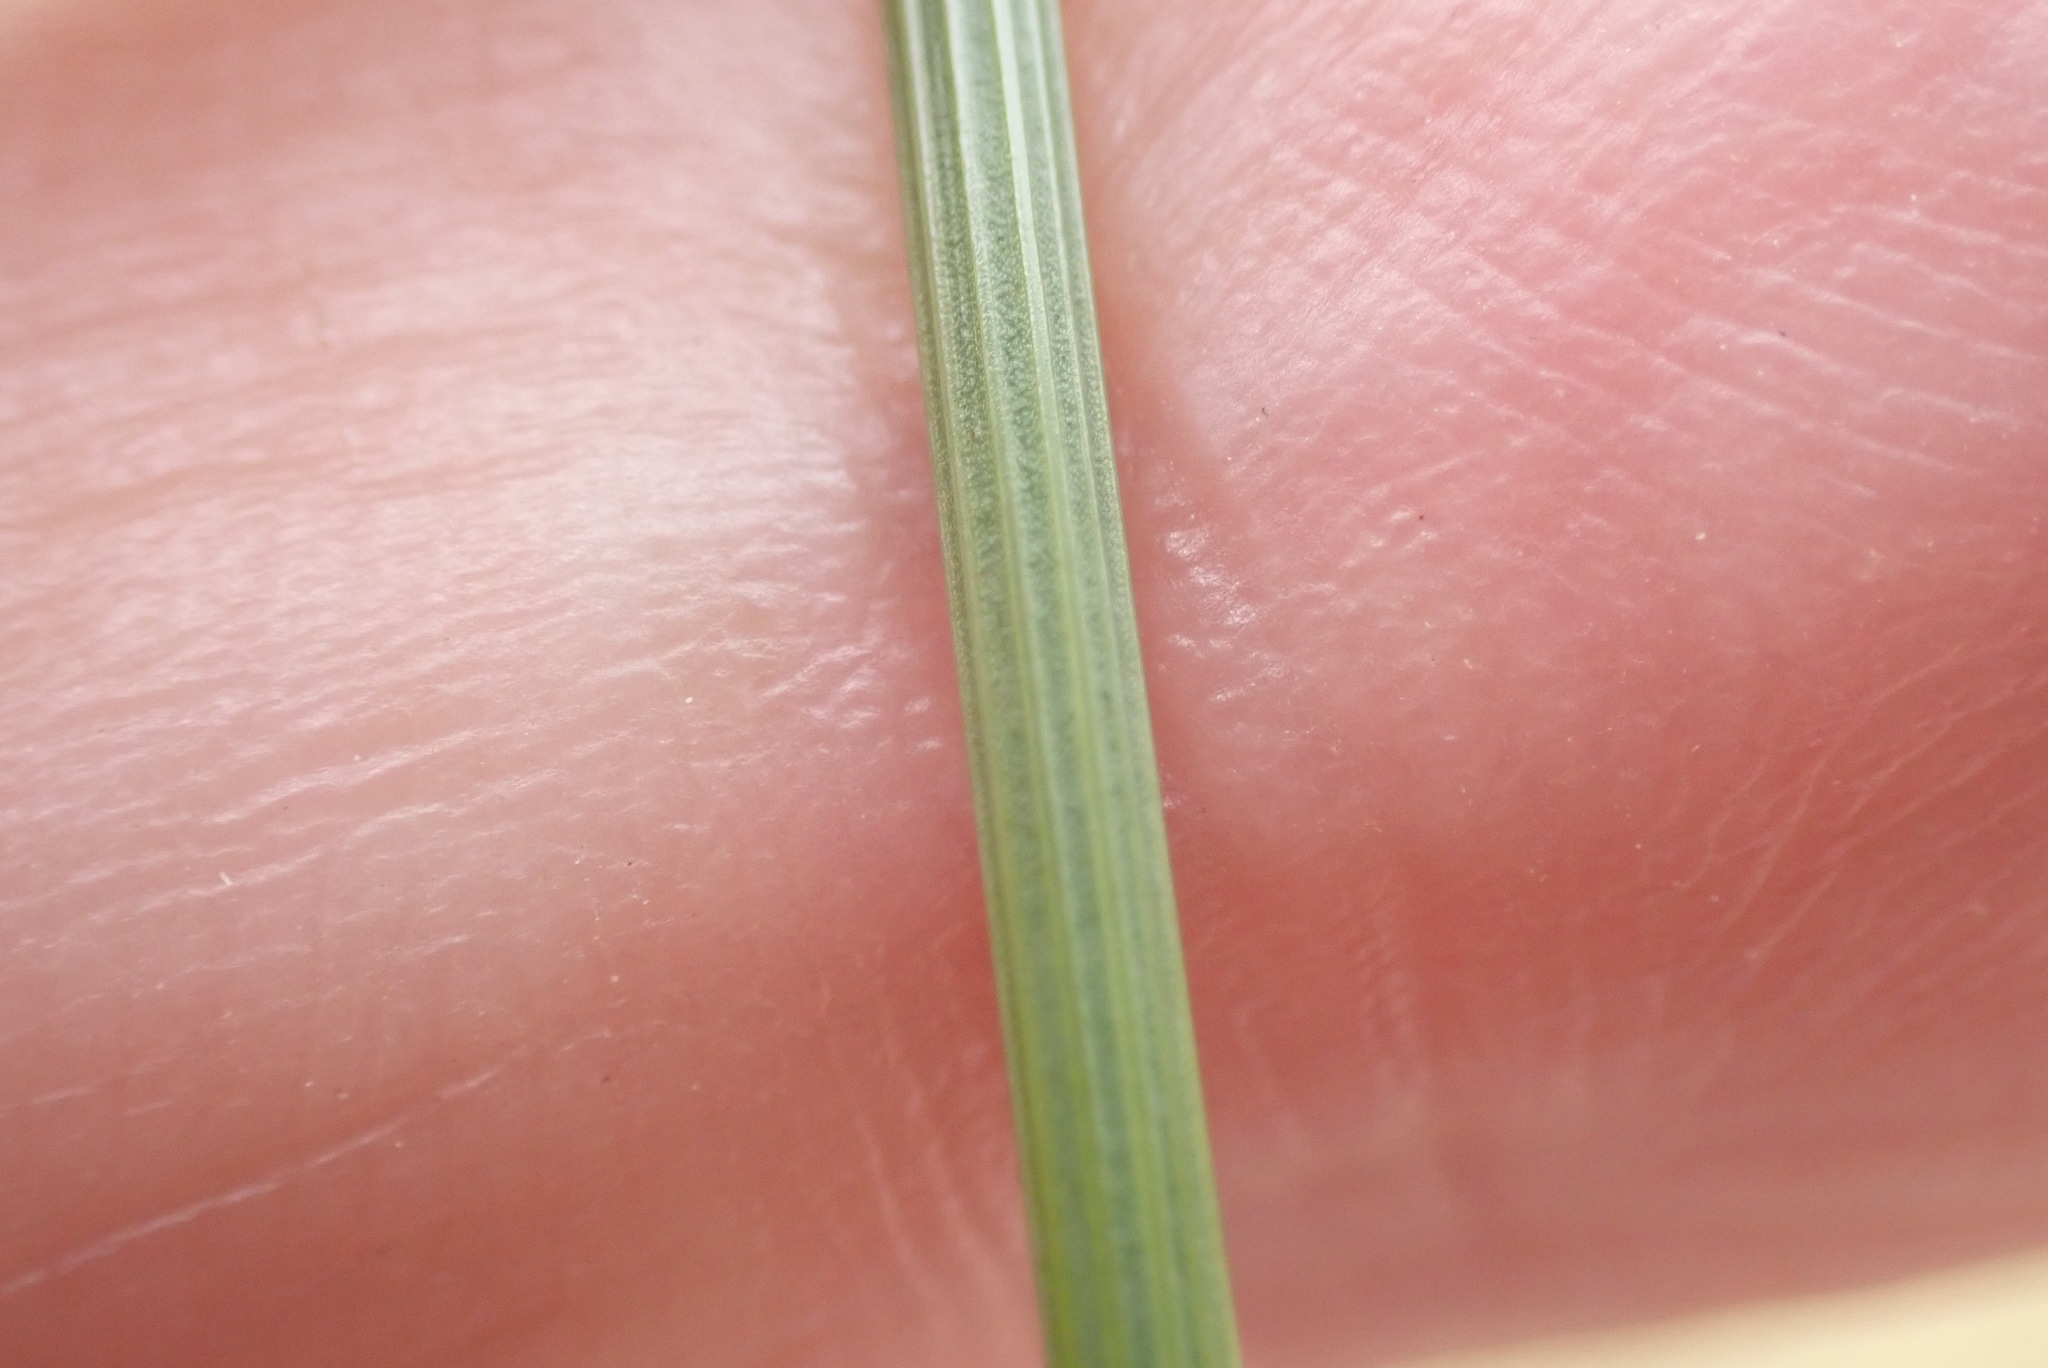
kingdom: Plantae
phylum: Tracheophyta
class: Liliopsida
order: Poales
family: Juncaceae
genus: Juncus
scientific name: Juncus inflexus
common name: Hard rush
